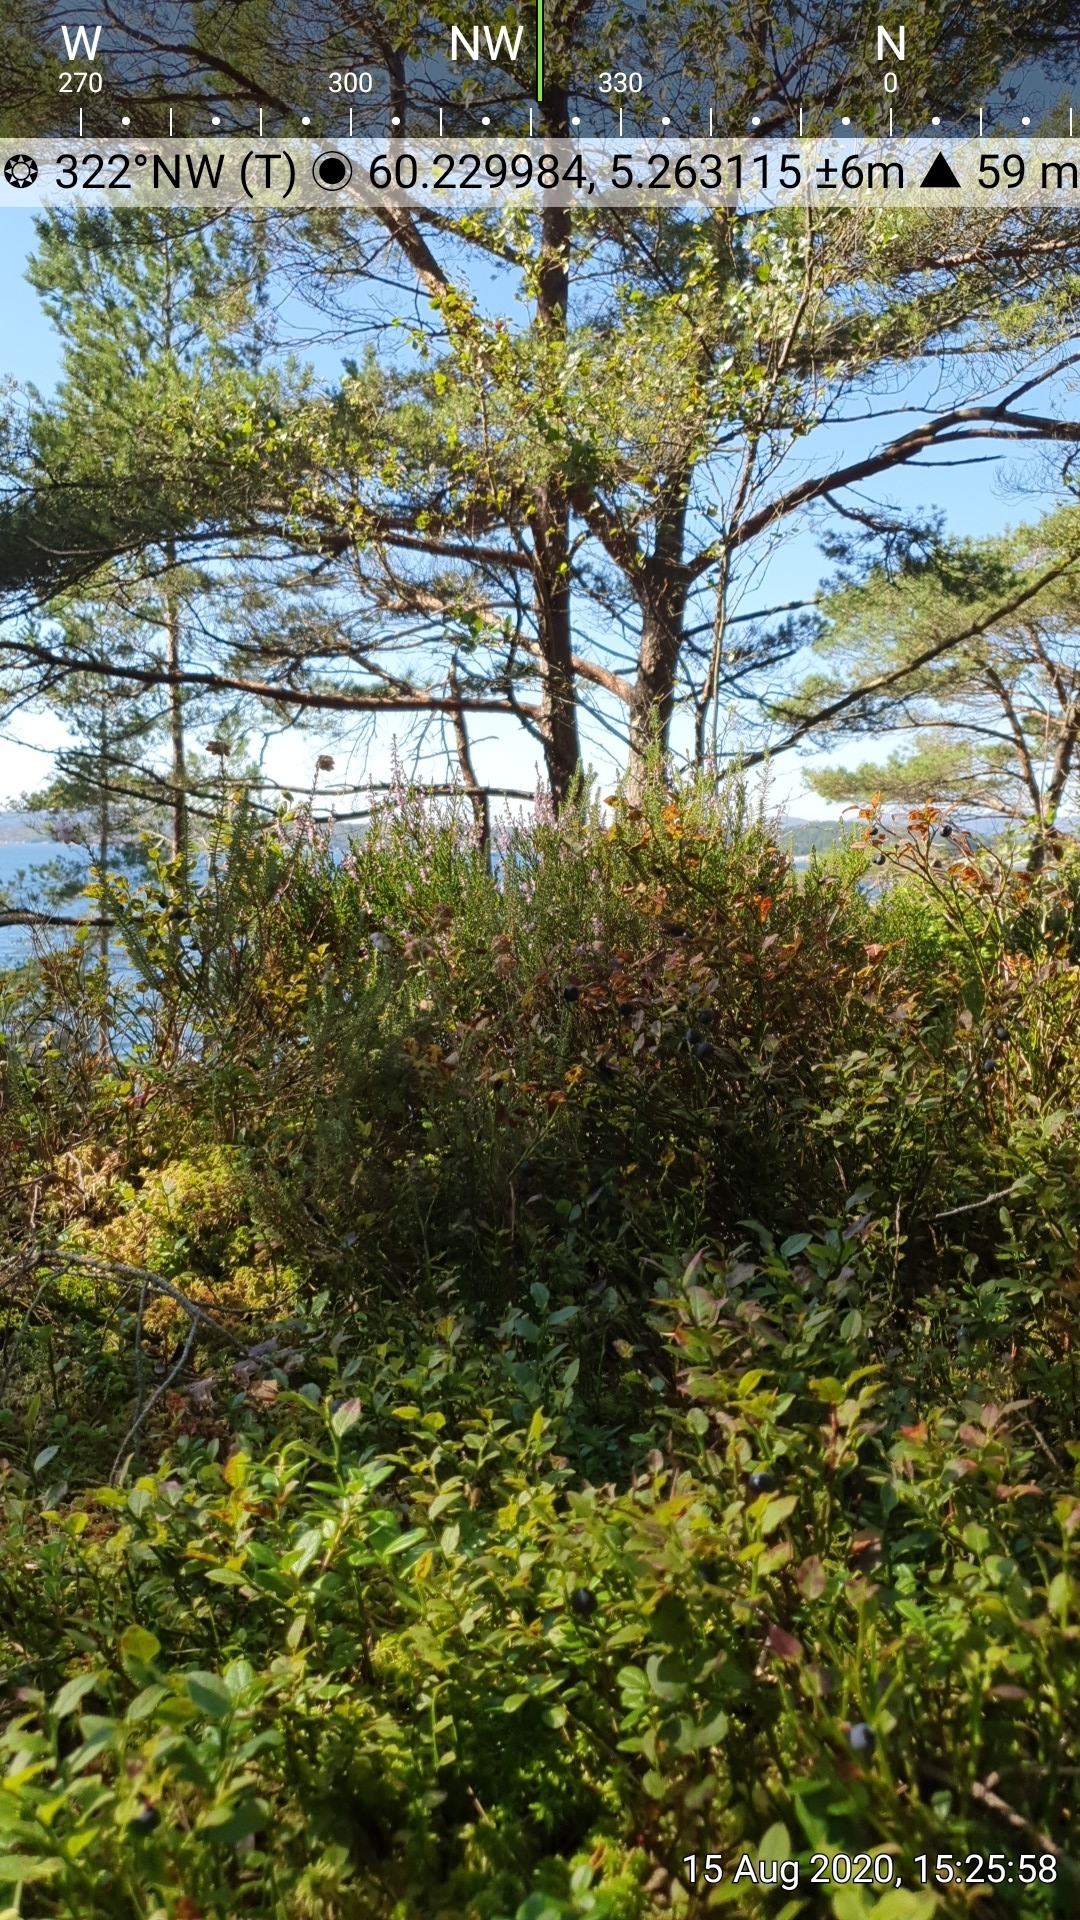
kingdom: Plantae
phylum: Tracheophyta
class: Magnoliopsida
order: Ericales
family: Ericaceae
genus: Calluna
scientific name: Calluna vulgaris
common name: Heather
